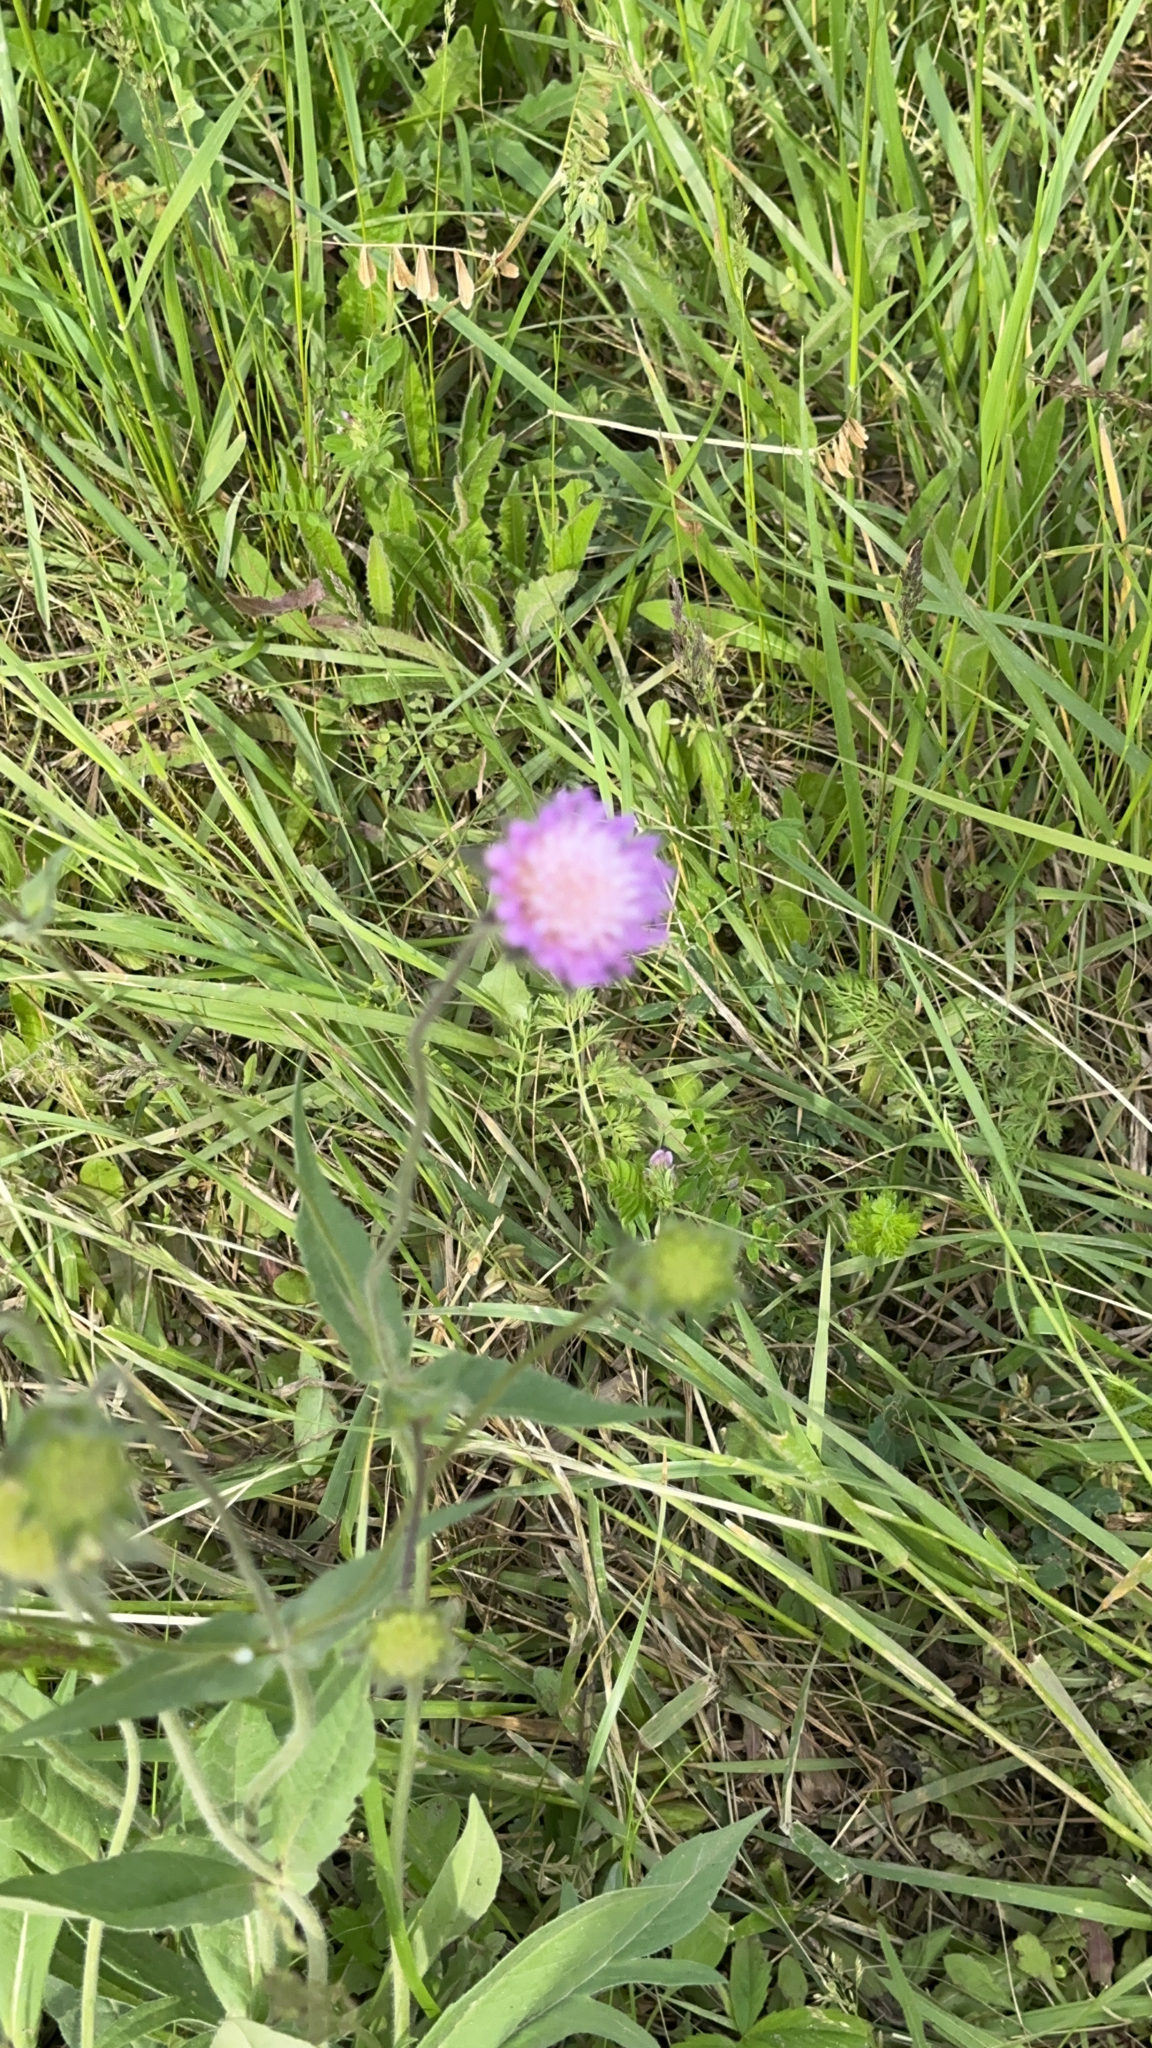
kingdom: Plantae
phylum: Tracheophyta
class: Magnoliopsida
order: Dipsacales
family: Caprifoliaceae
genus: Knautia
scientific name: Knautia arvensis
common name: Field scabiosa
